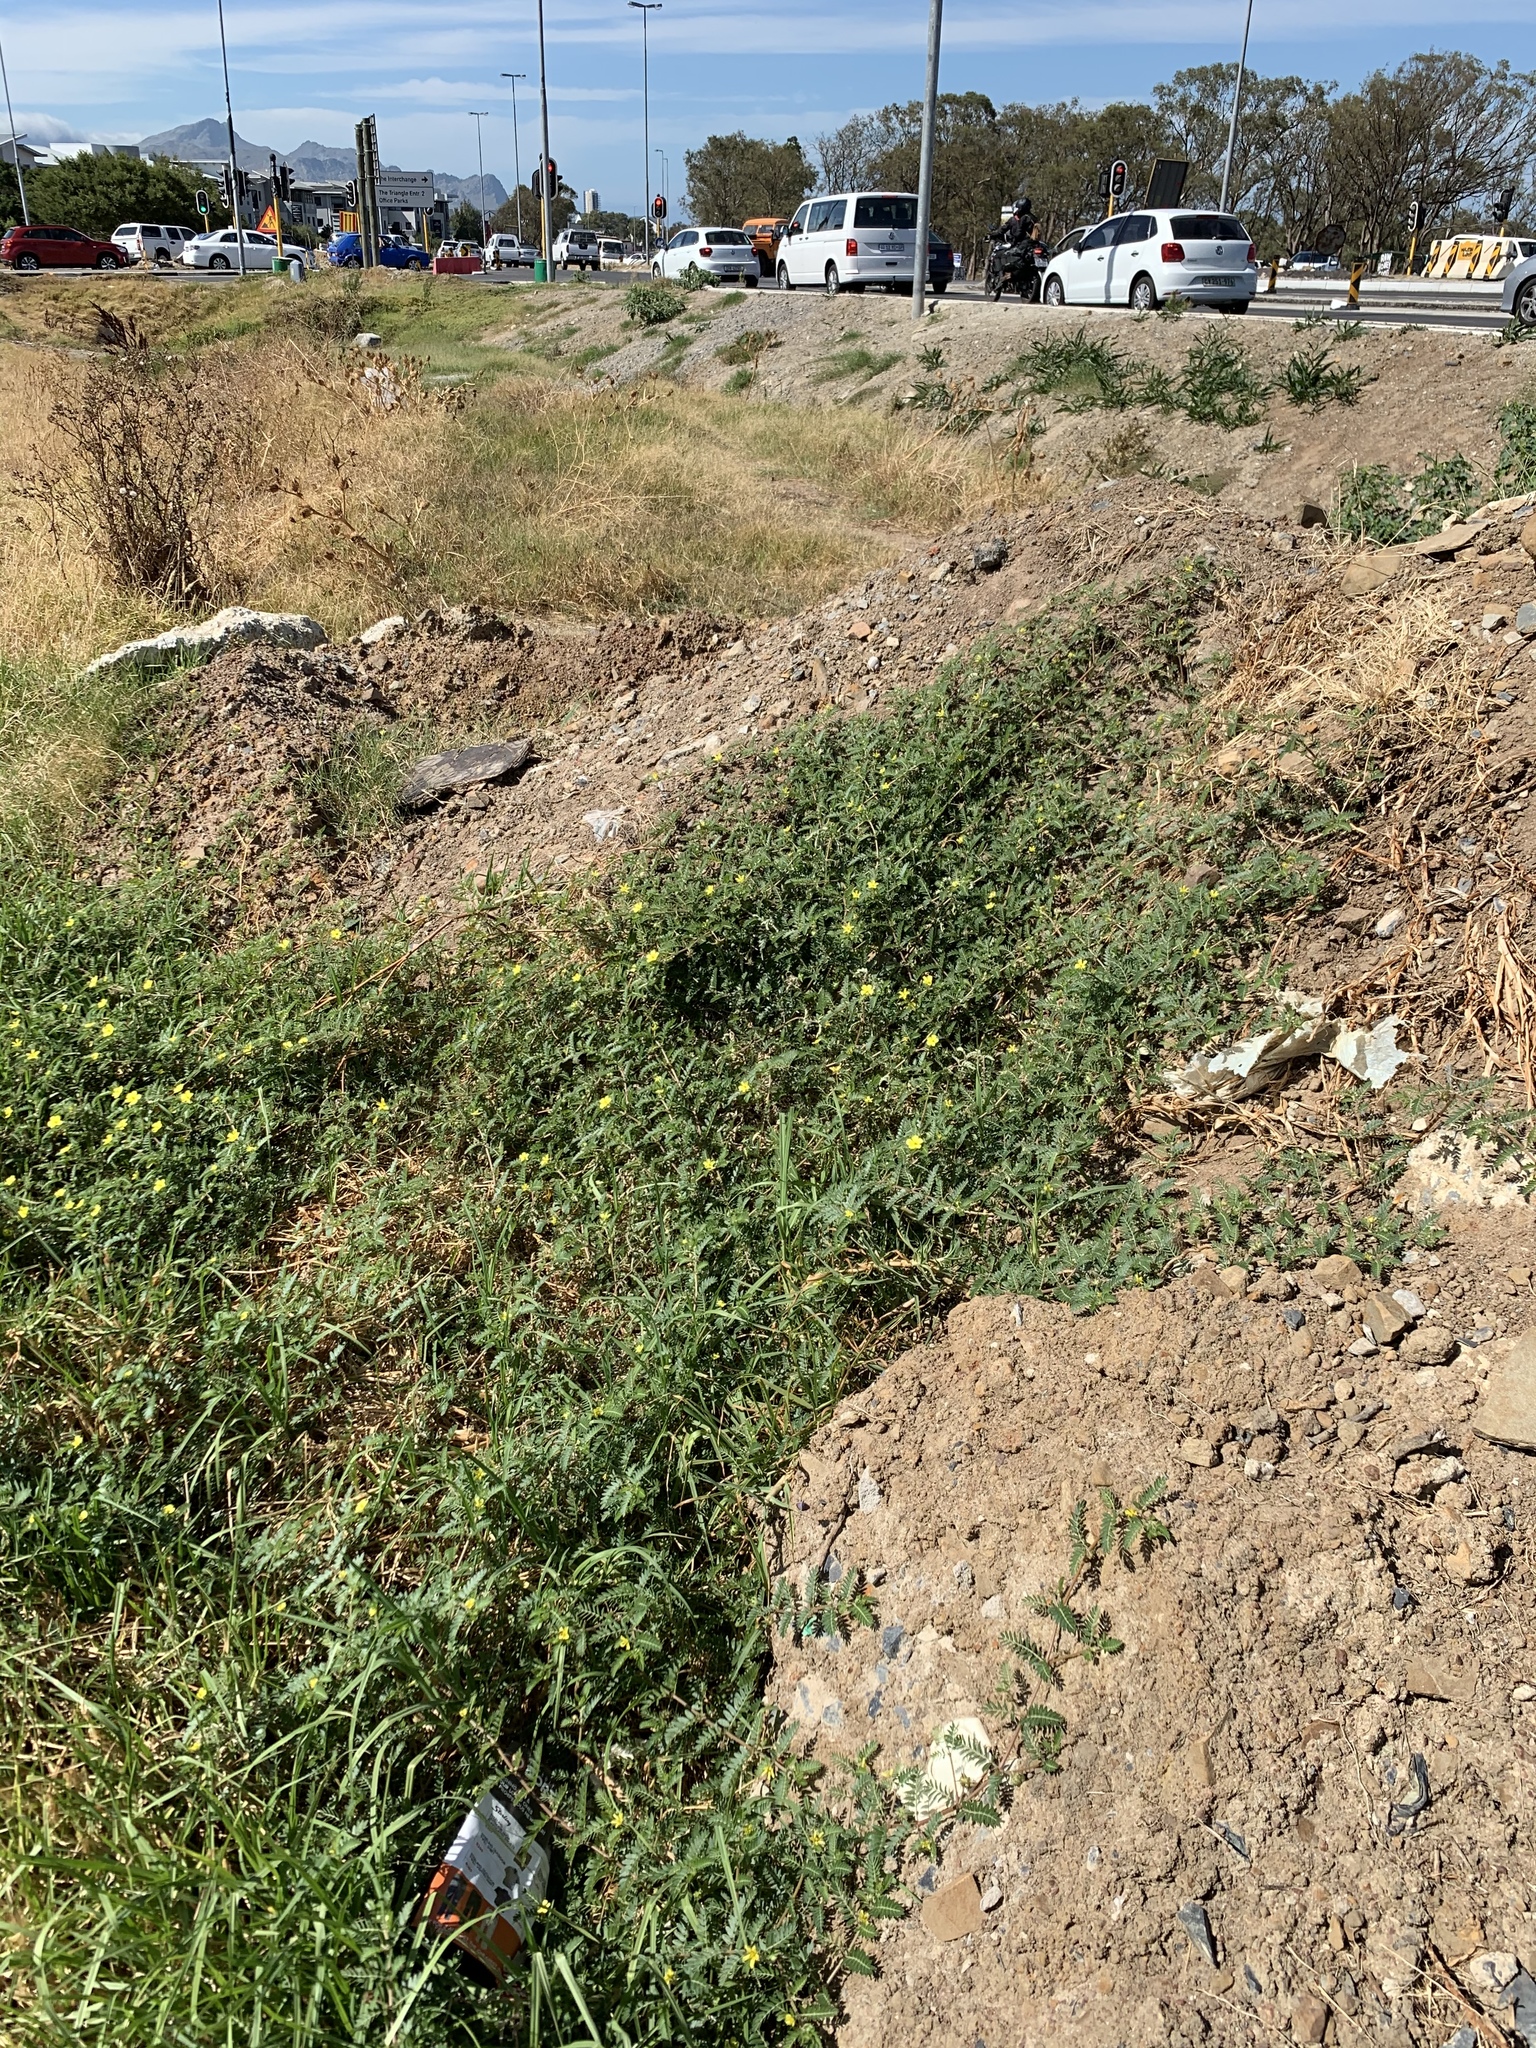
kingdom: Plantae
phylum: Tracheophyta
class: Magnoliopsida
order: Zygophyllales
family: Zygophyllaceae
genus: Tribulus
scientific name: Tribulus terrestris
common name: Puncturevine
